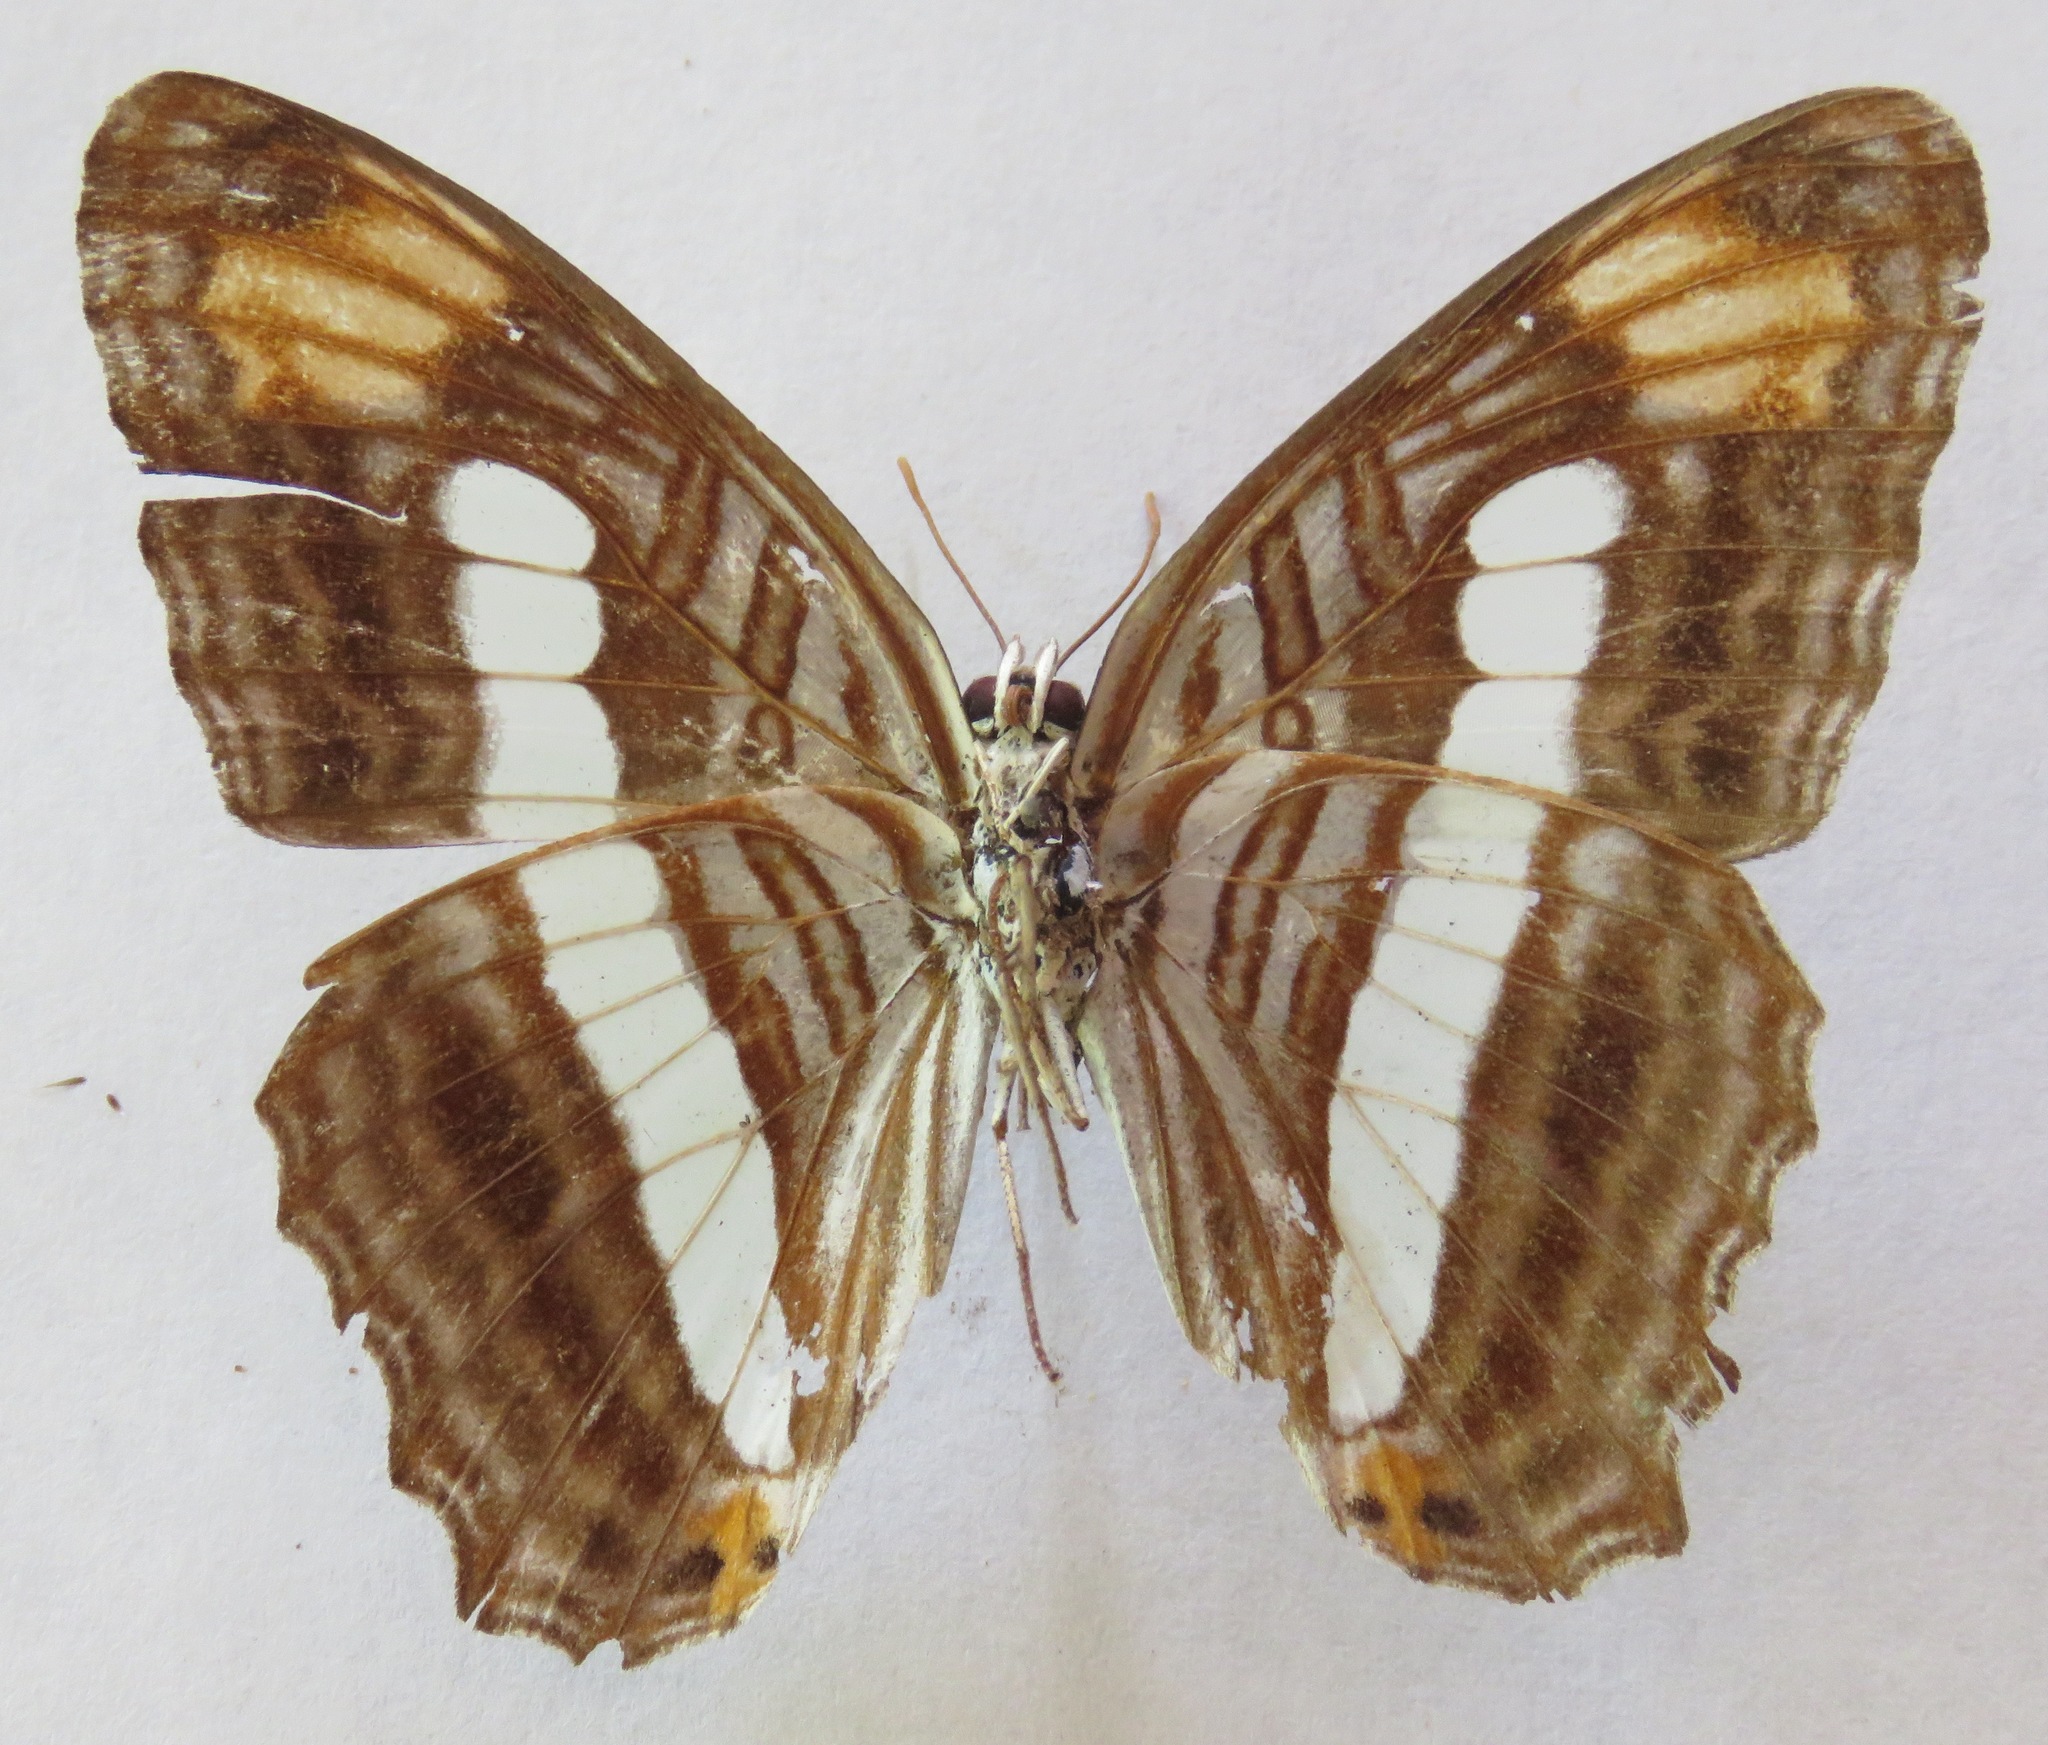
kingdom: Animalia
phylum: Arthropoda
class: Insecta
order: Lepidoptera
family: Nymphalidae
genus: Limenitis
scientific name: Limenitis iphiclus
